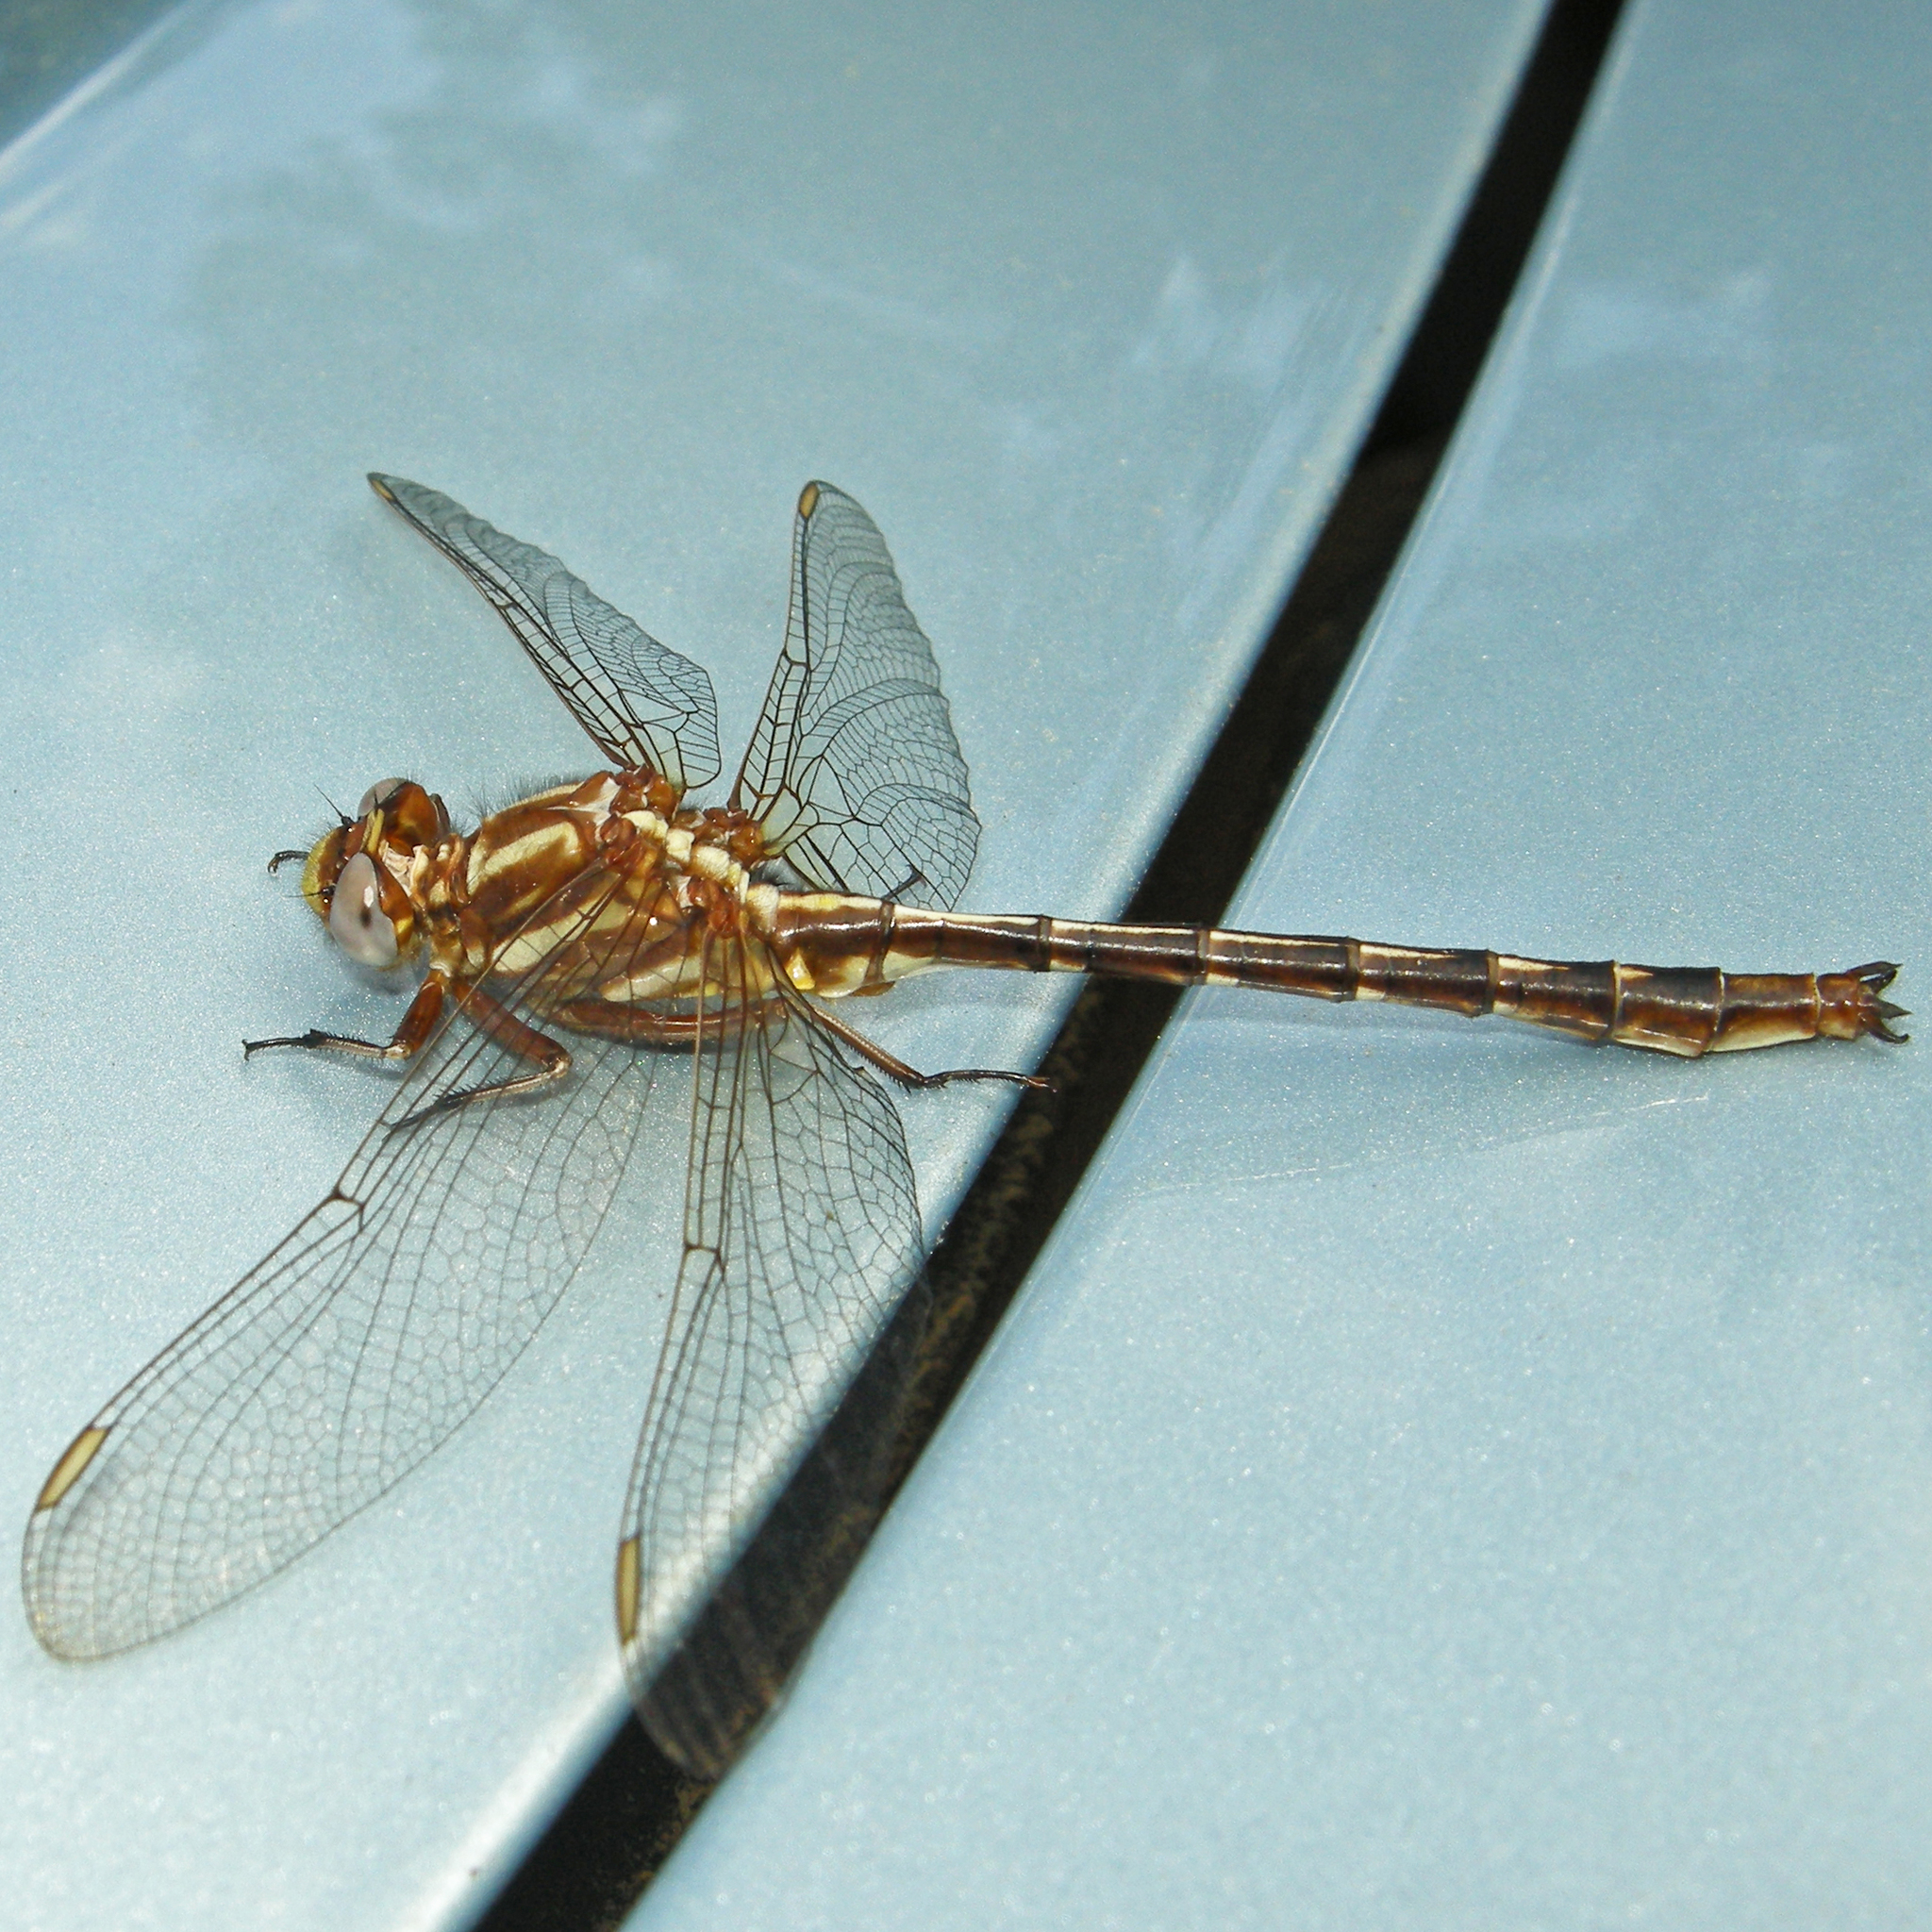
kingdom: Animalia
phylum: Arthropoda
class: Insecta
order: Odonata
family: Gomphidae
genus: Phanogomphus
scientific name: Phanogomphus lividus
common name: Ashy clubtail
